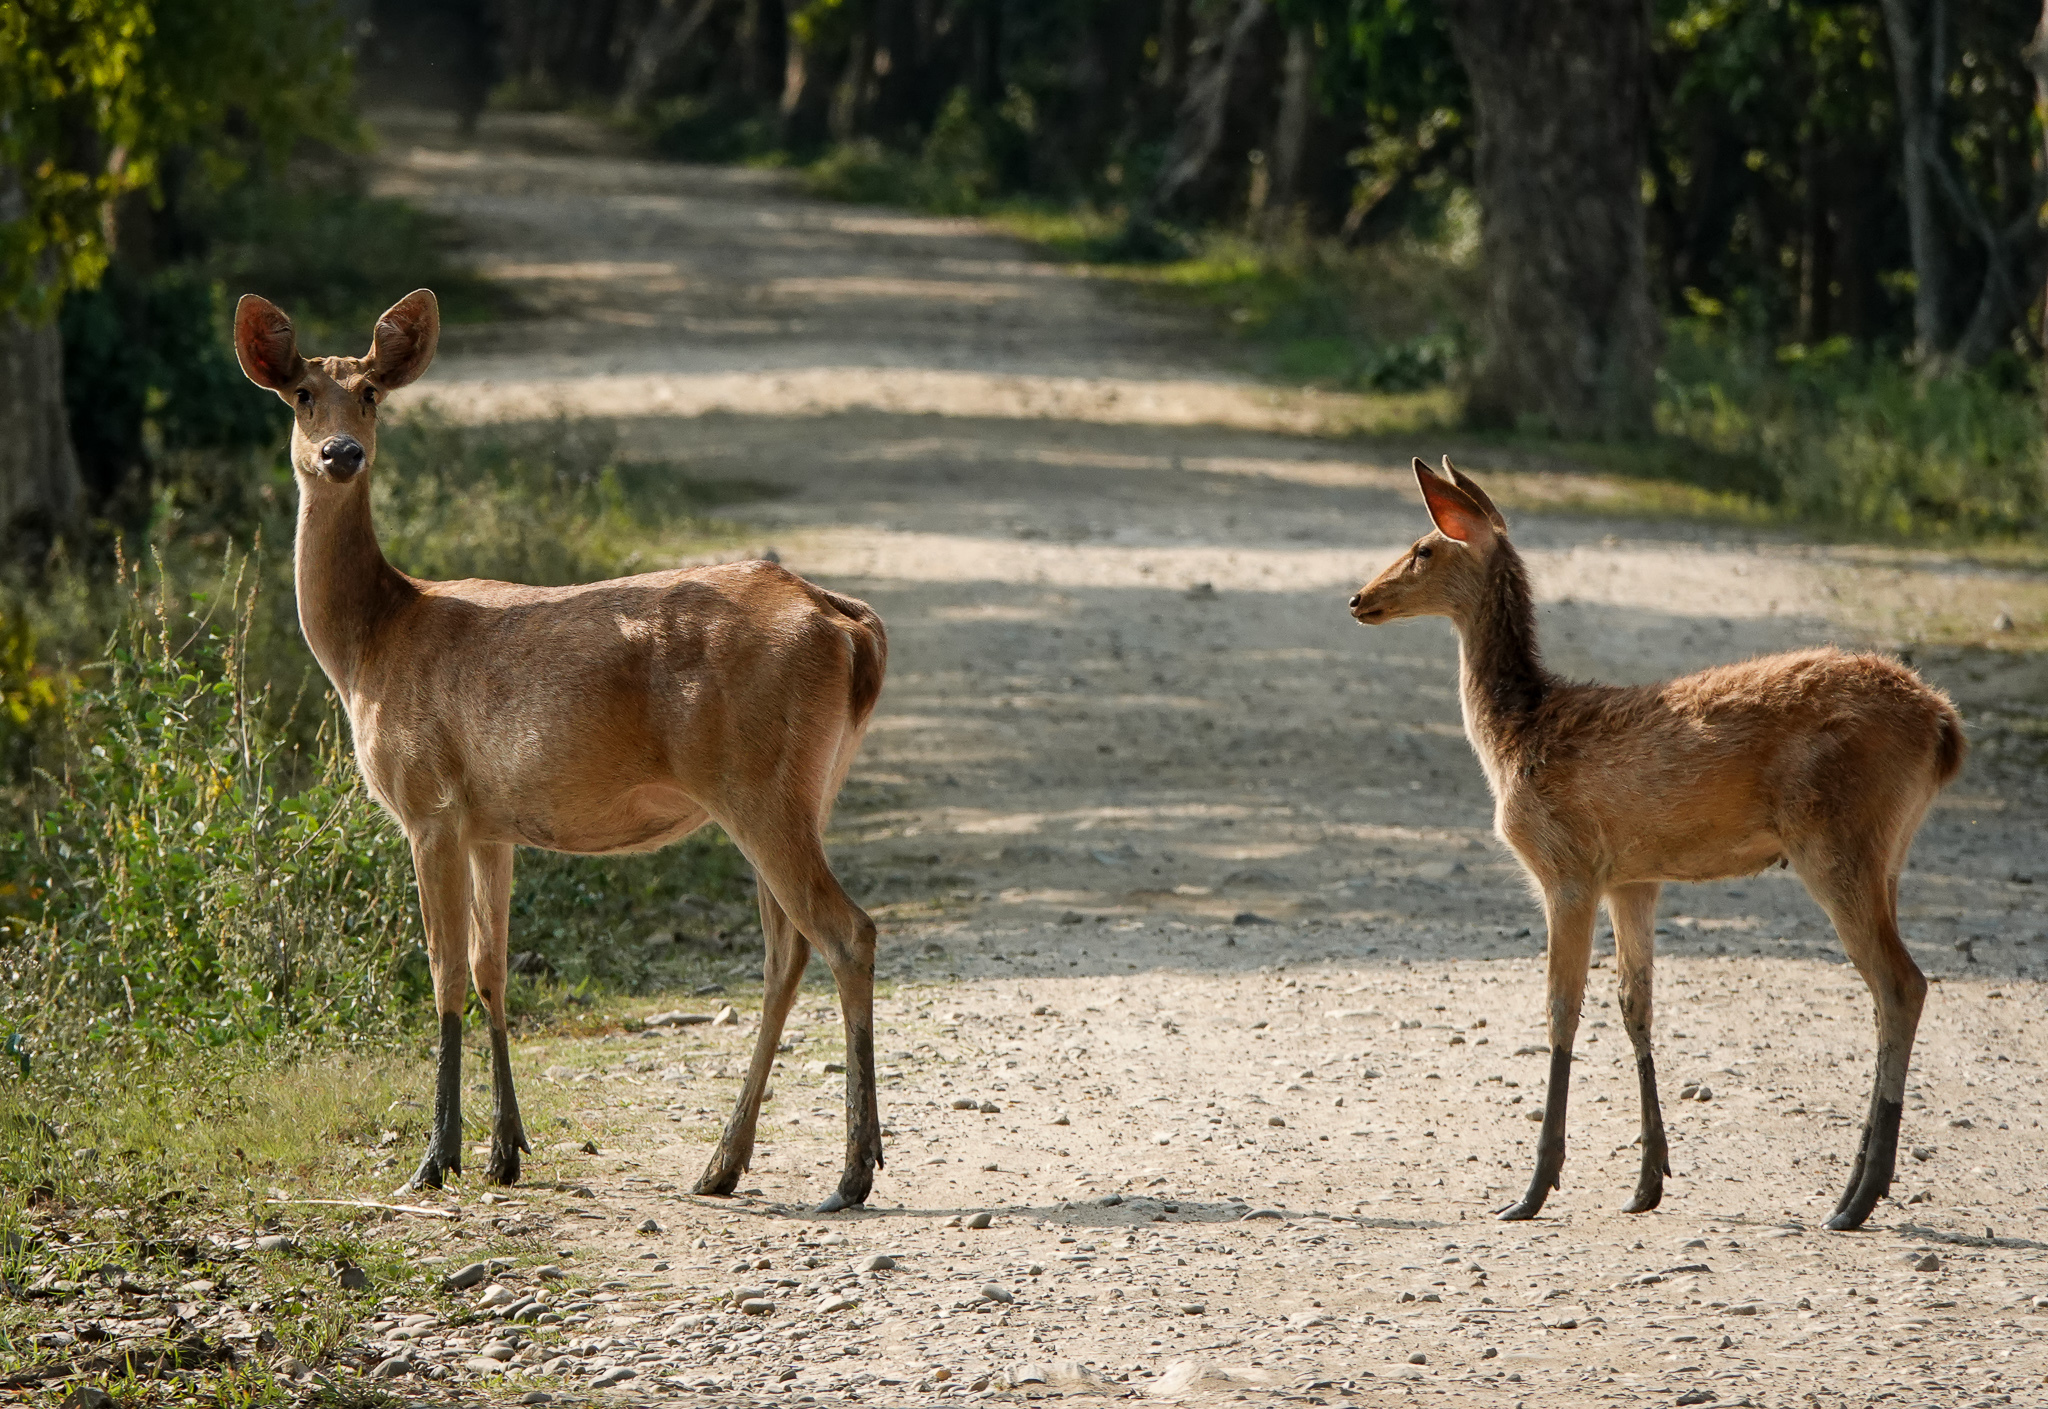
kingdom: Animalia
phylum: Chordata
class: Mammalia
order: Artiodactyla
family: Cervidae
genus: Rucervus
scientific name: Rucervus duvaucelii
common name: Barasingha
